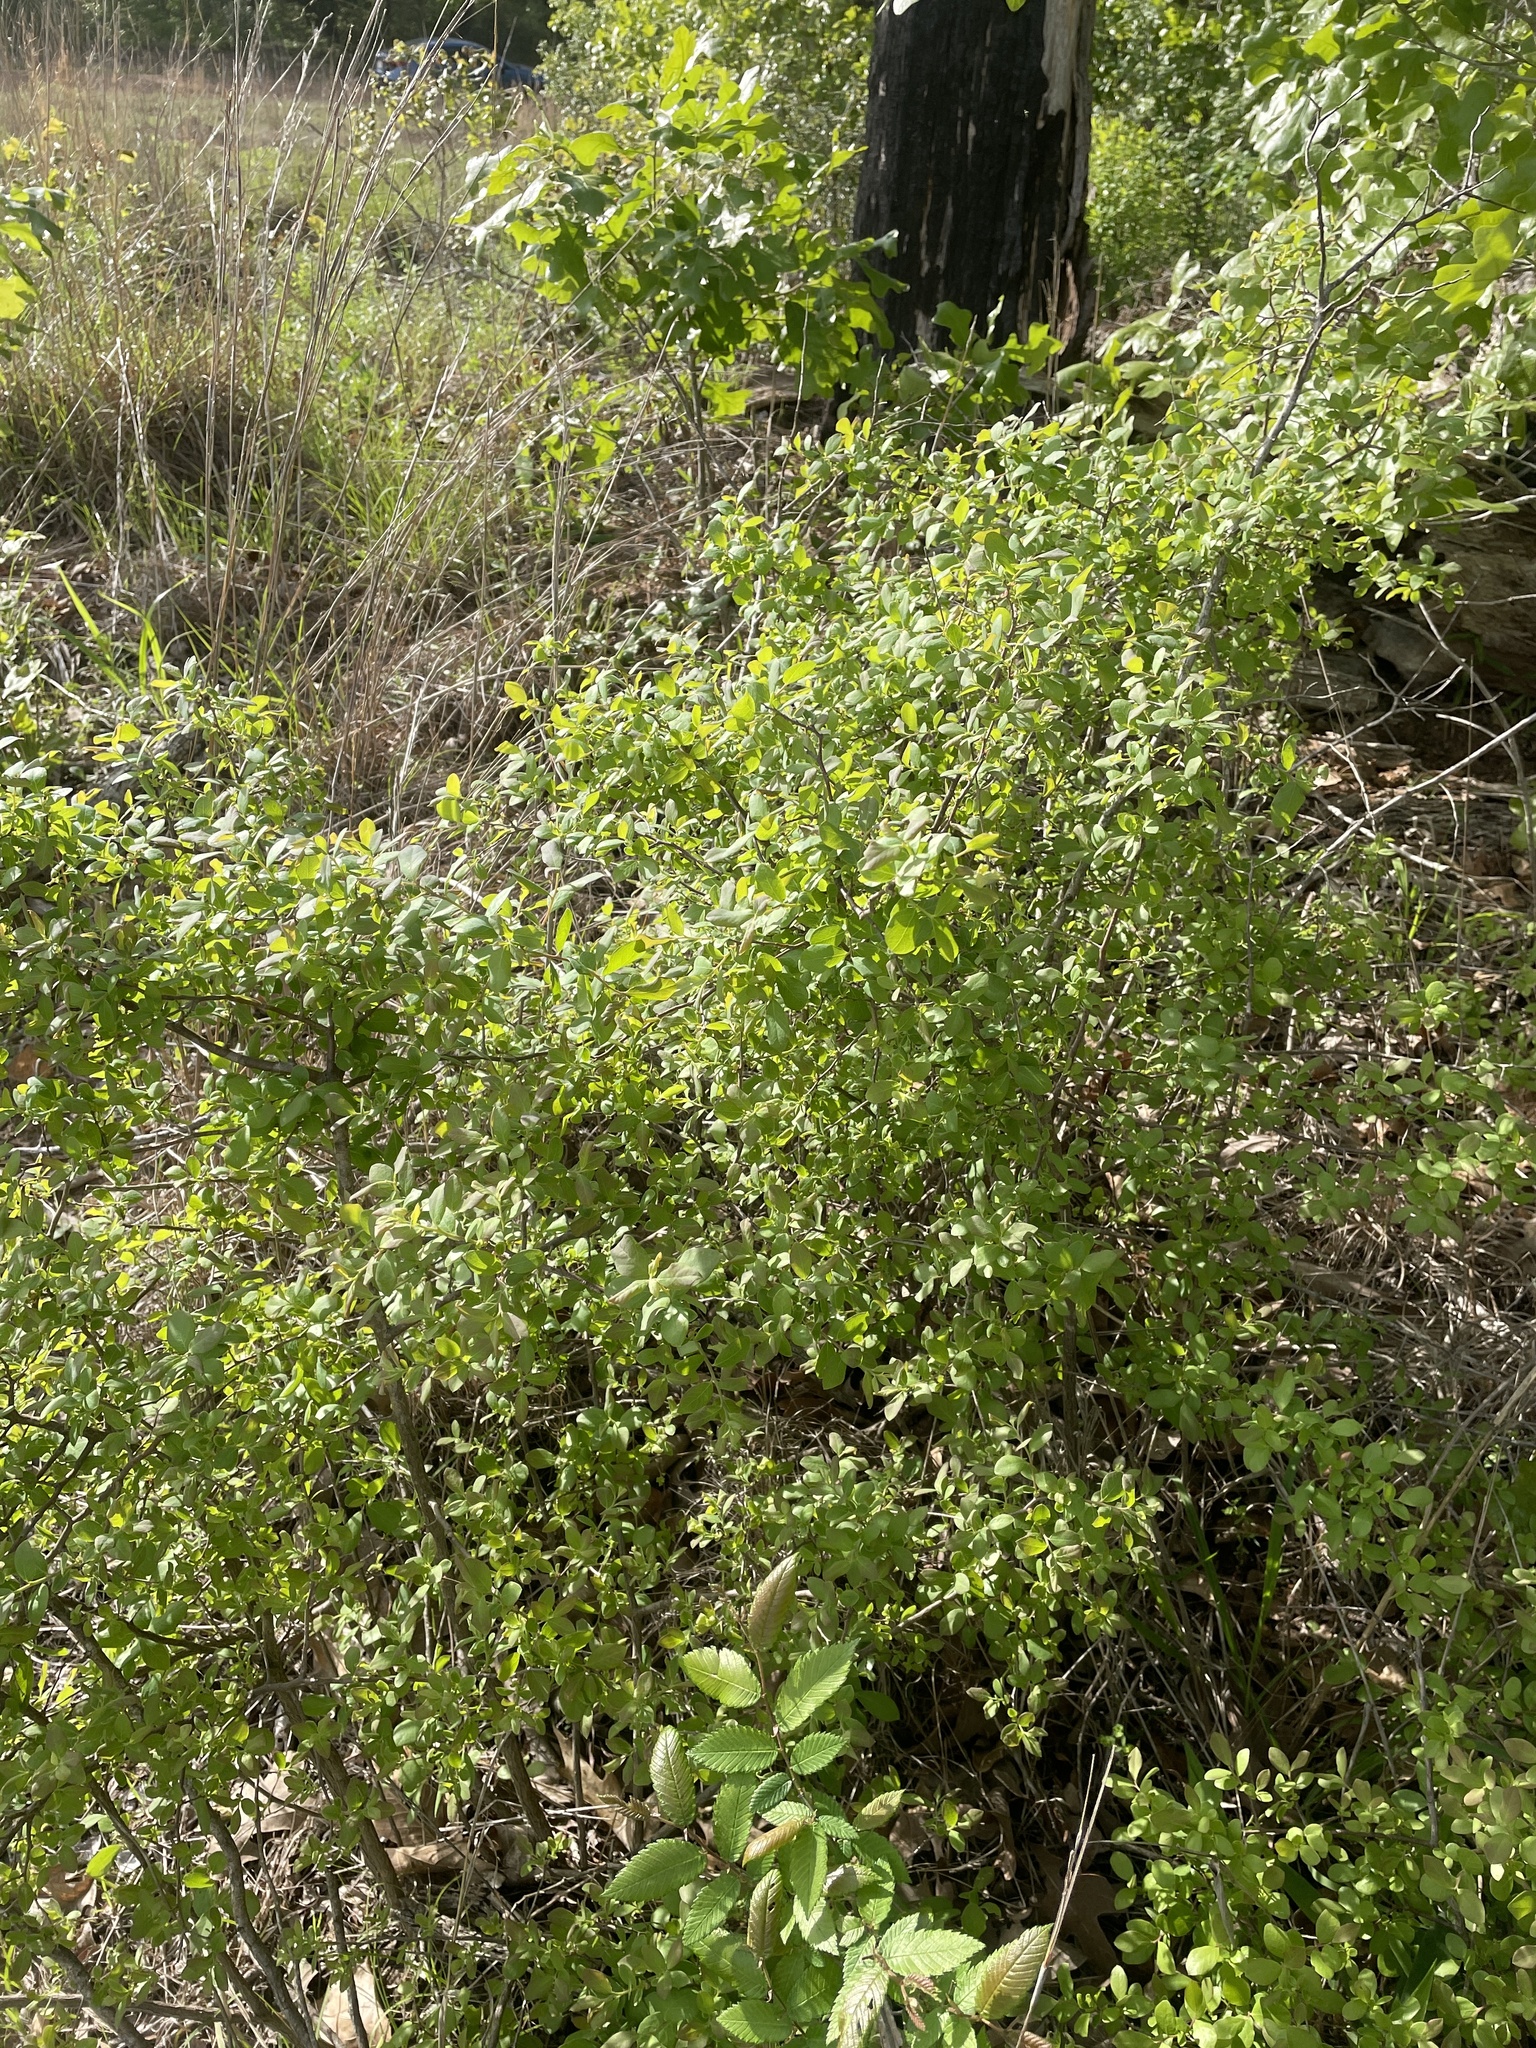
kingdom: Plantae
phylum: Tracheophyta
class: Magnoliopsida
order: Ericales
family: Ericaceae
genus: Vaccinium
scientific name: Vaccinium arboreum
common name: Farkleberry
